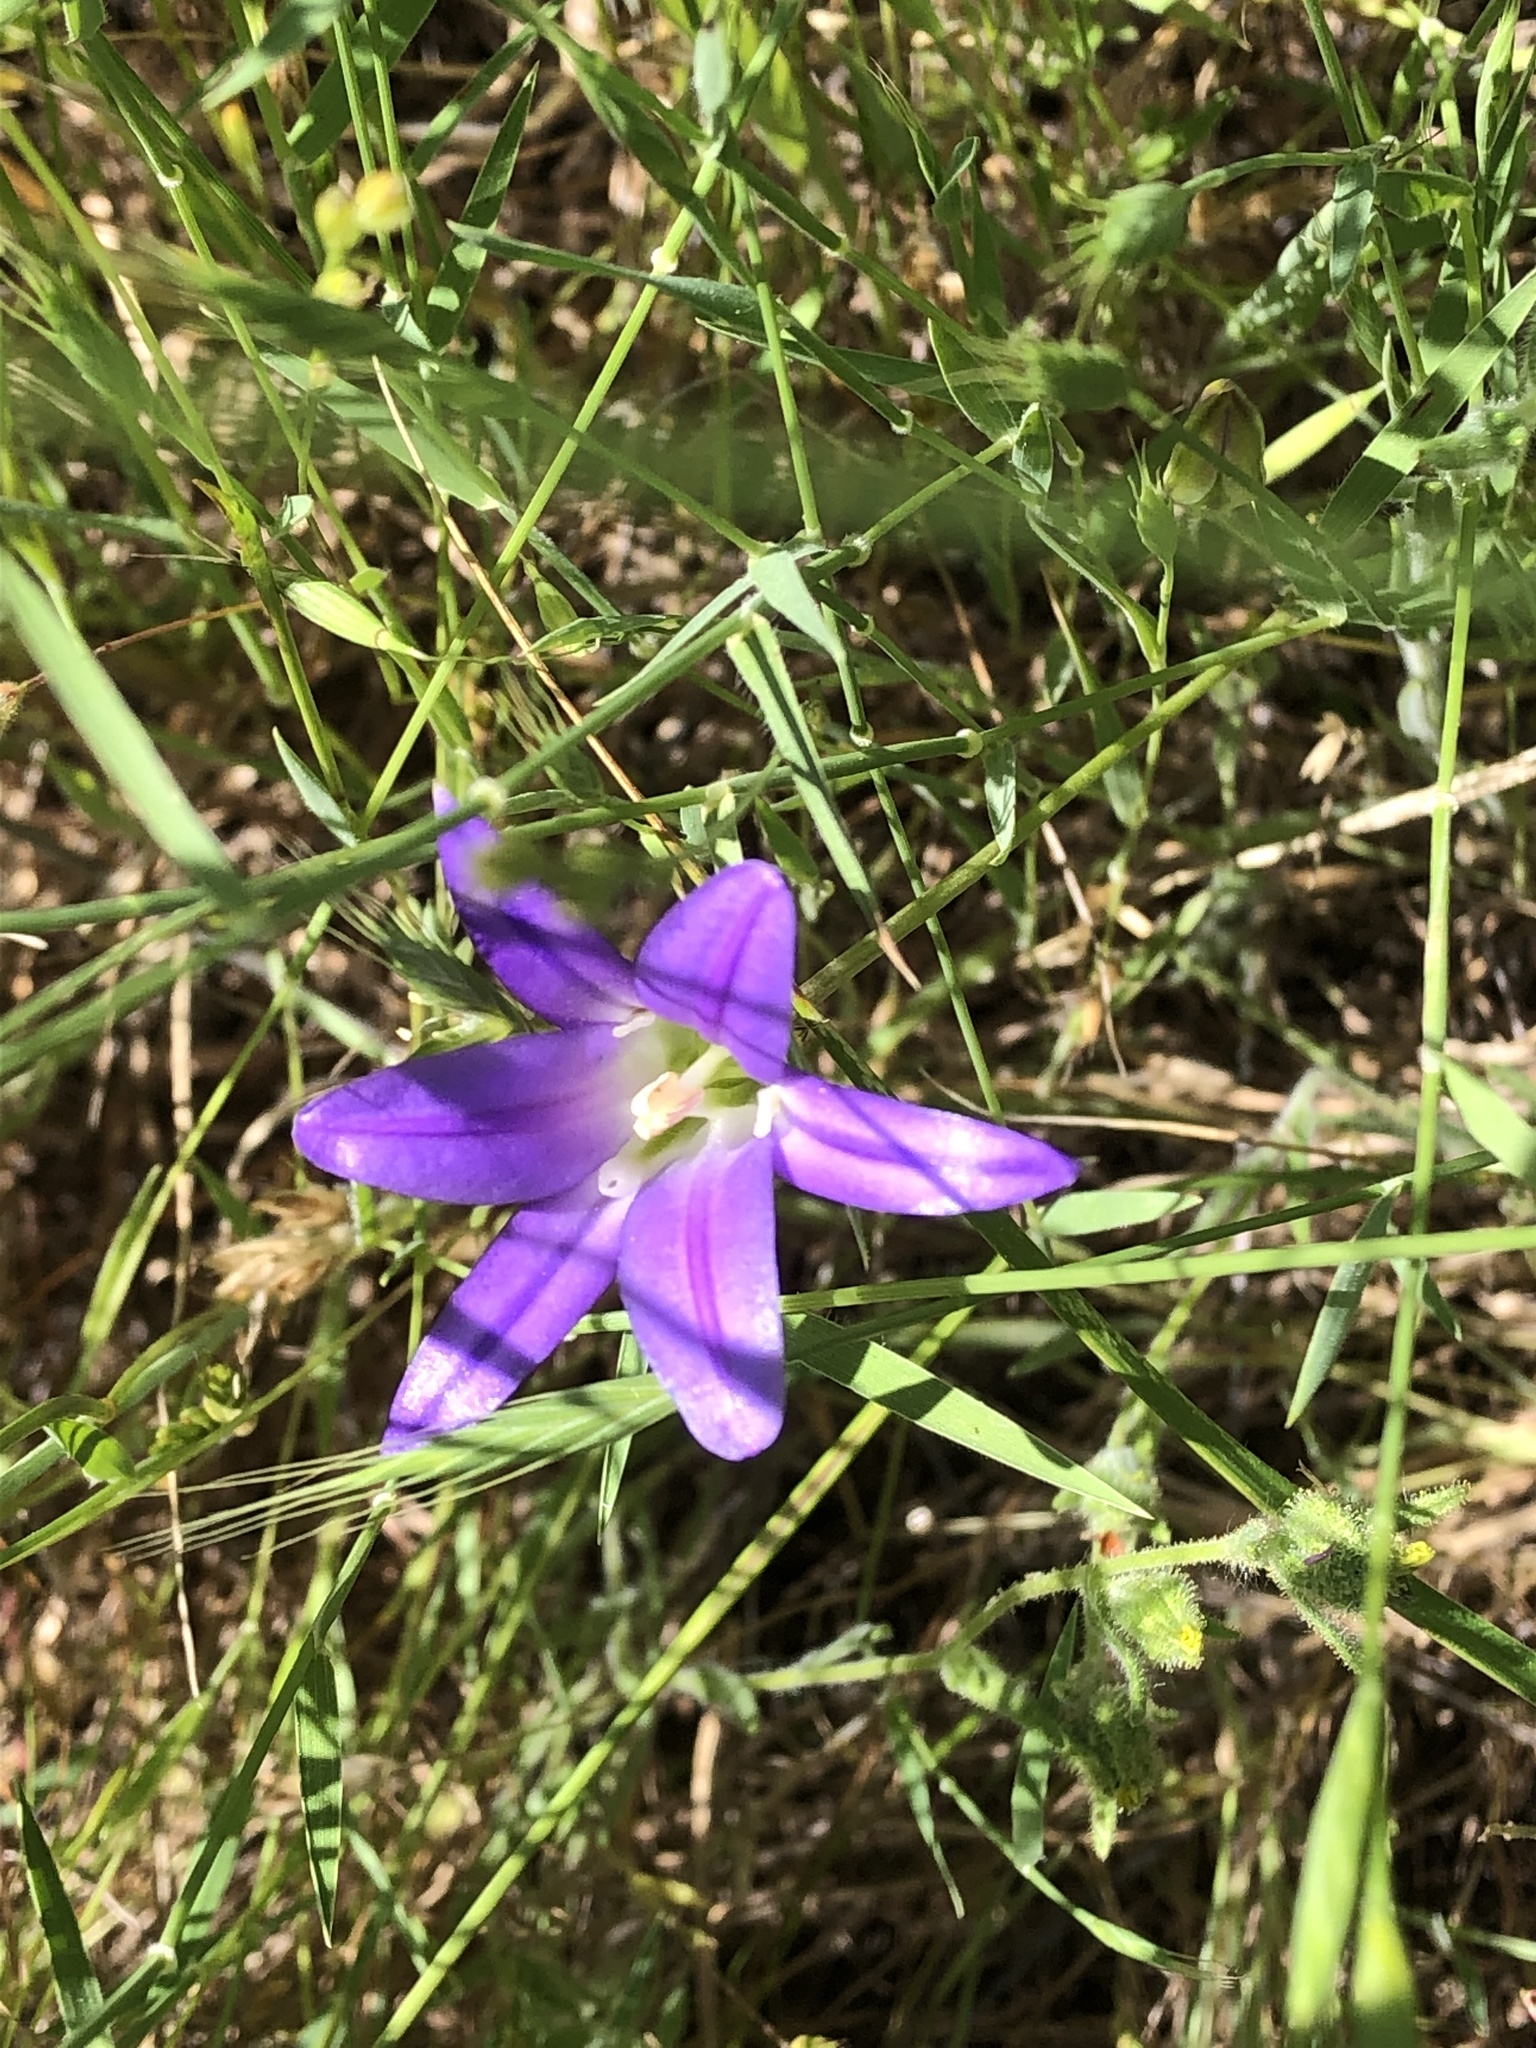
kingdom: Plantae
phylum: Tracheophyta
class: Liliopsida
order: Asparagales
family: Asparagaceae
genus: Brodiaea
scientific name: Brodiaea elegans
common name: Elegant cluster-lily
